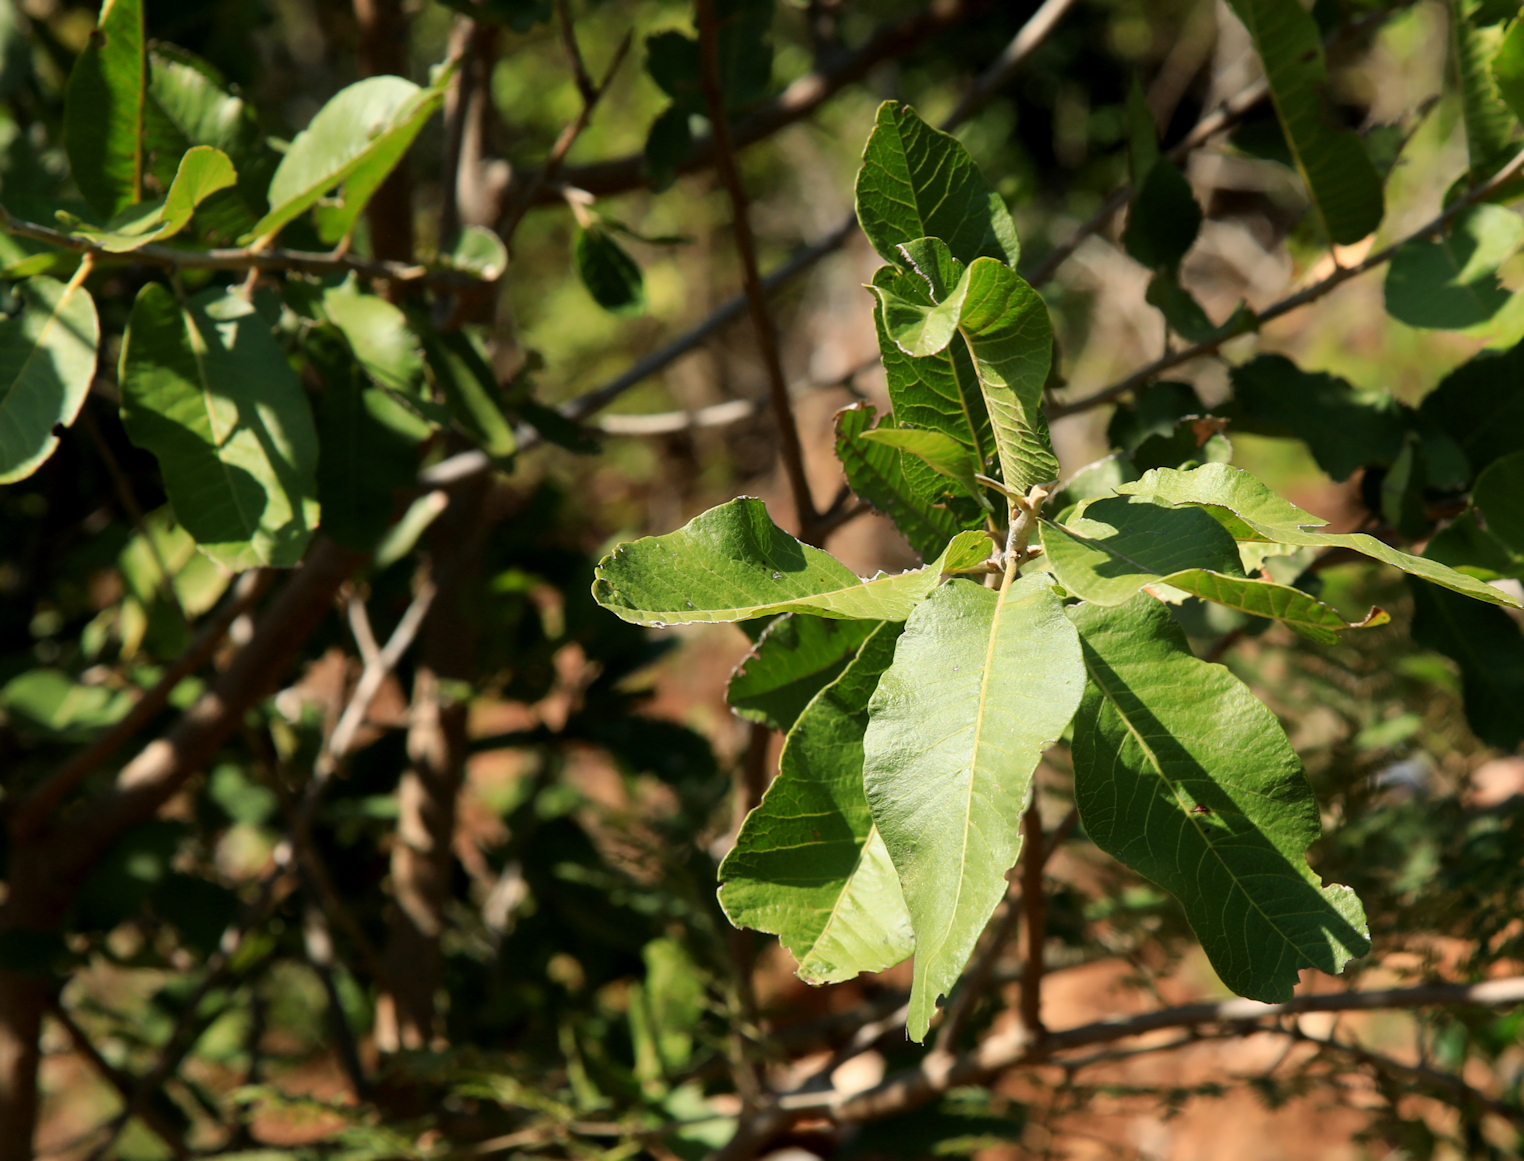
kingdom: Plantae
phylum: Tracheophyta
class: Magnoliopsida
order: Sapindales
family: Sapindaceae
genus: Pappea
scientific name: Pappea capensis
